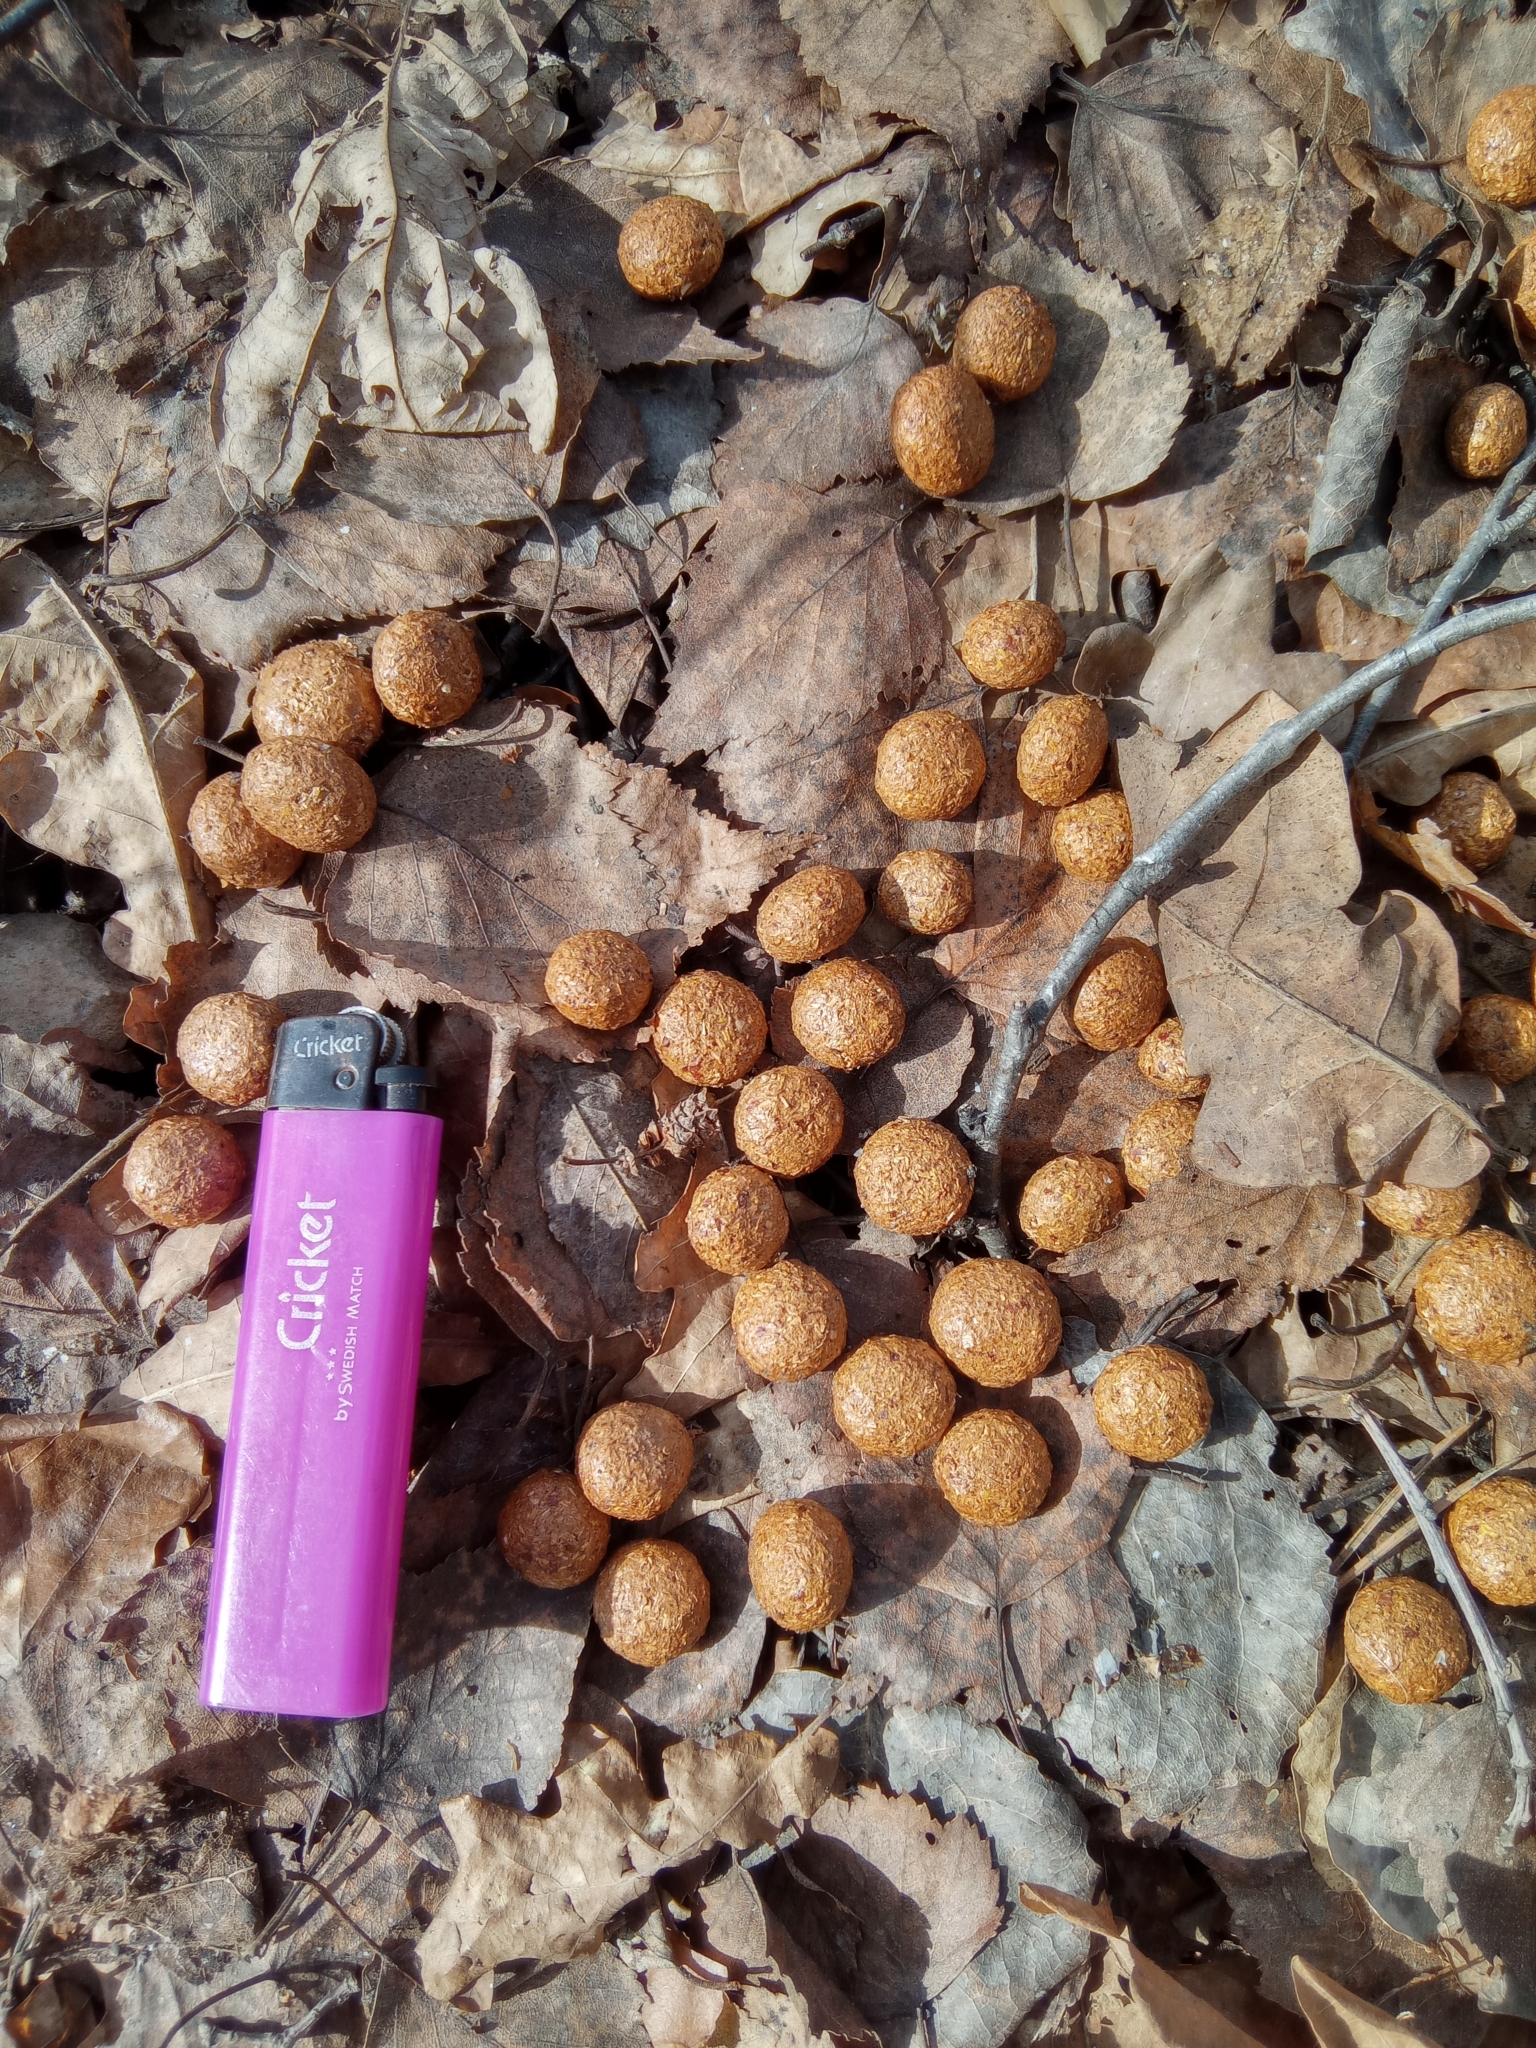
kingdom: Animalia
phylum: Chordata
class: Mammalia
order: Lagomorpha
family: Leporidae
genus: Lepus
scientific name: Lepus timidus
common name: Mountain hare
